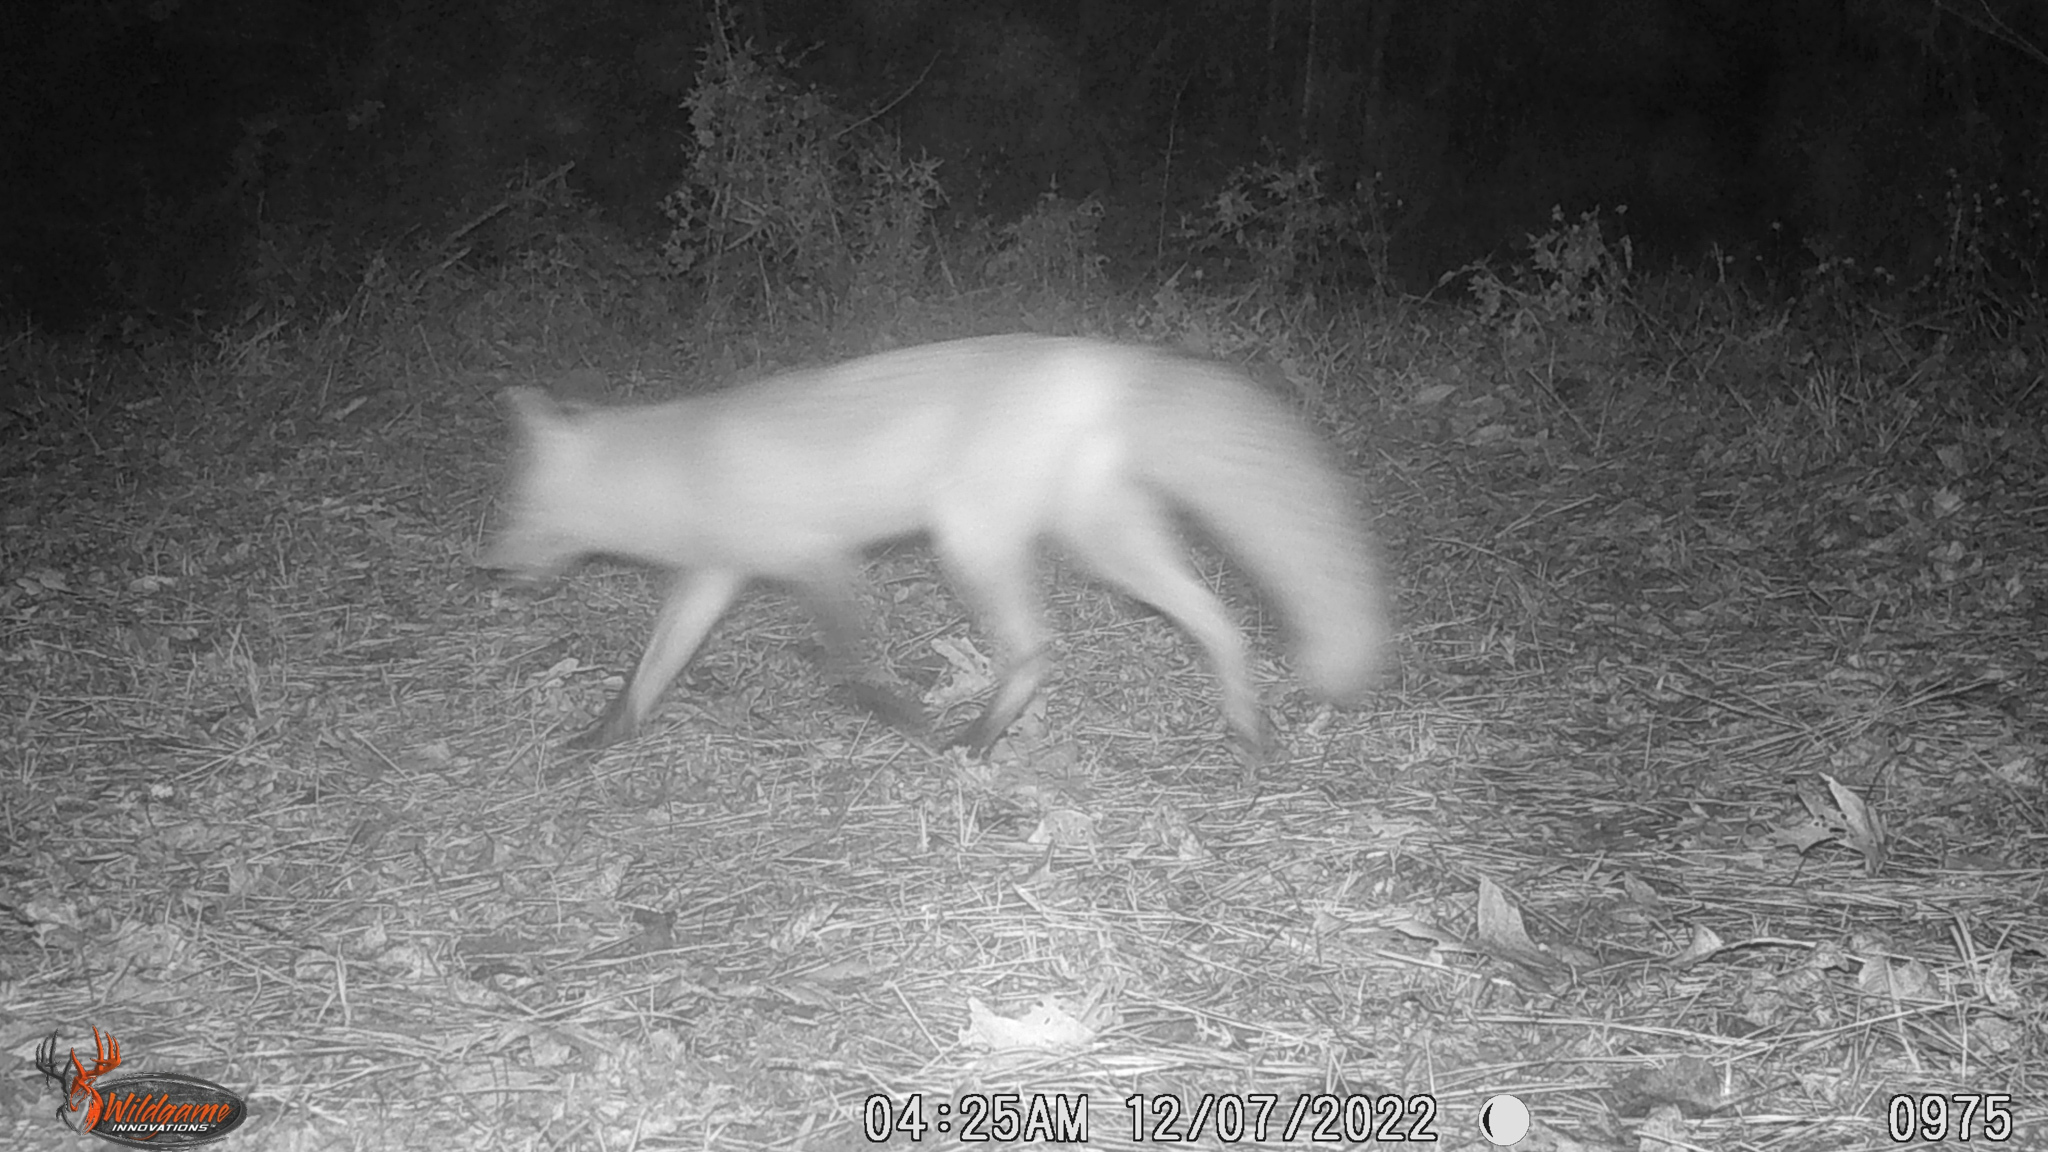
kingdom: Animalia
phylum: Chordata
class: Mammalia
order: Carnivora
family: Canidae
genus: Vulpes
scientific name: Vulpes vulpes
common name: Red fox
